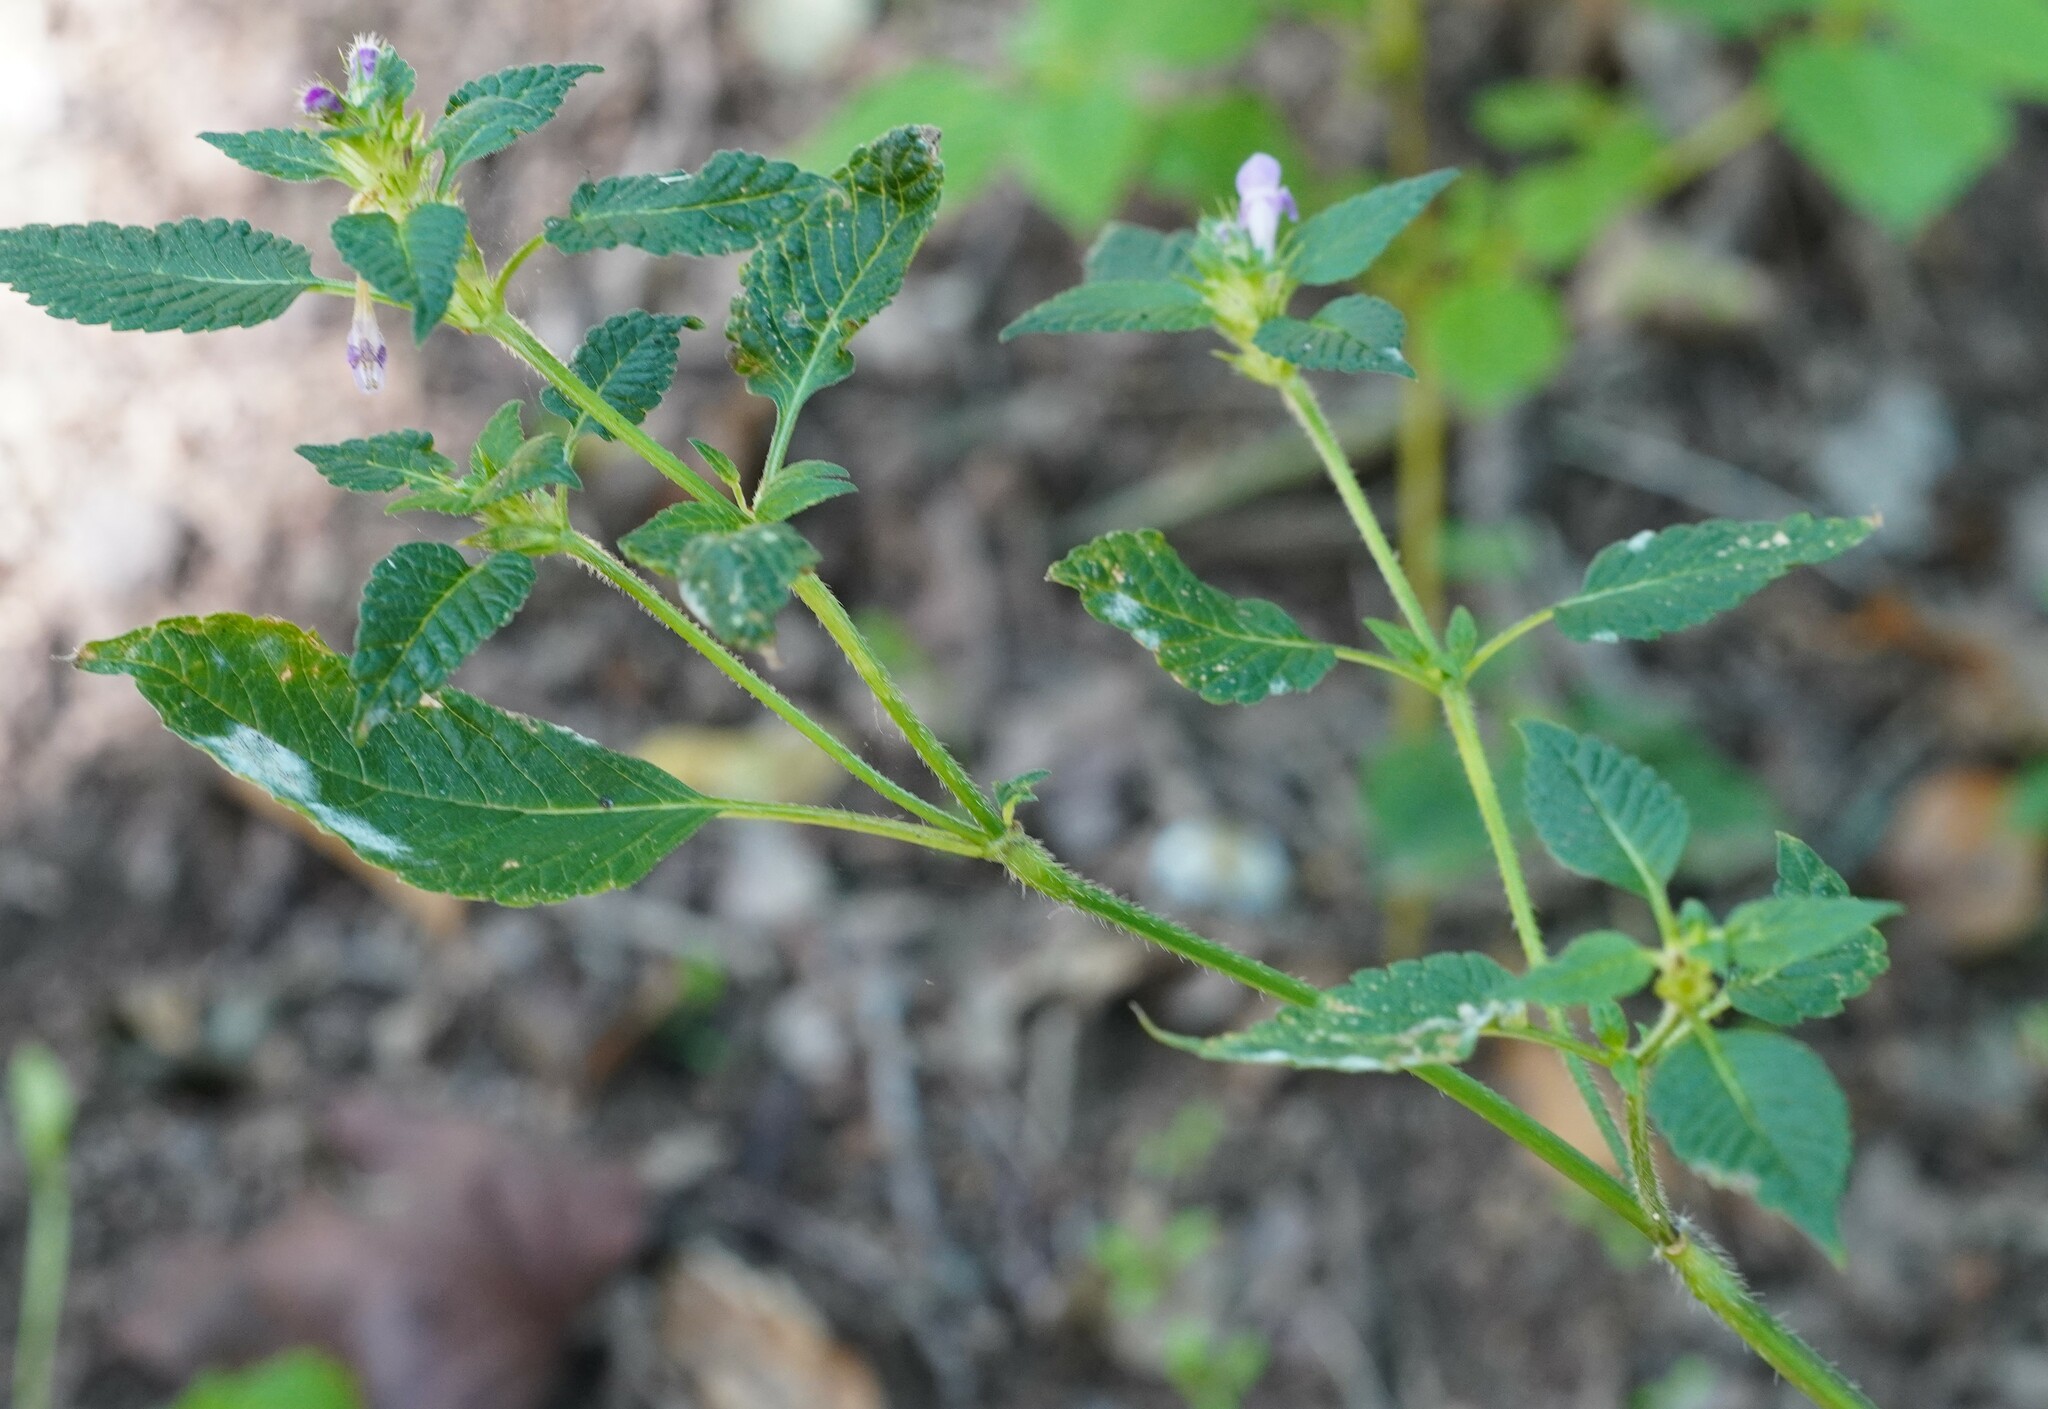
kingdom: Plantae
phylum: Tracheophyta
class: Magnoliopsida
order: Lamiales
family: Lamiaceae
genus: Galeopsis
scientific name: Galeopsis tetrahit
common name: Common hemp-nettle
